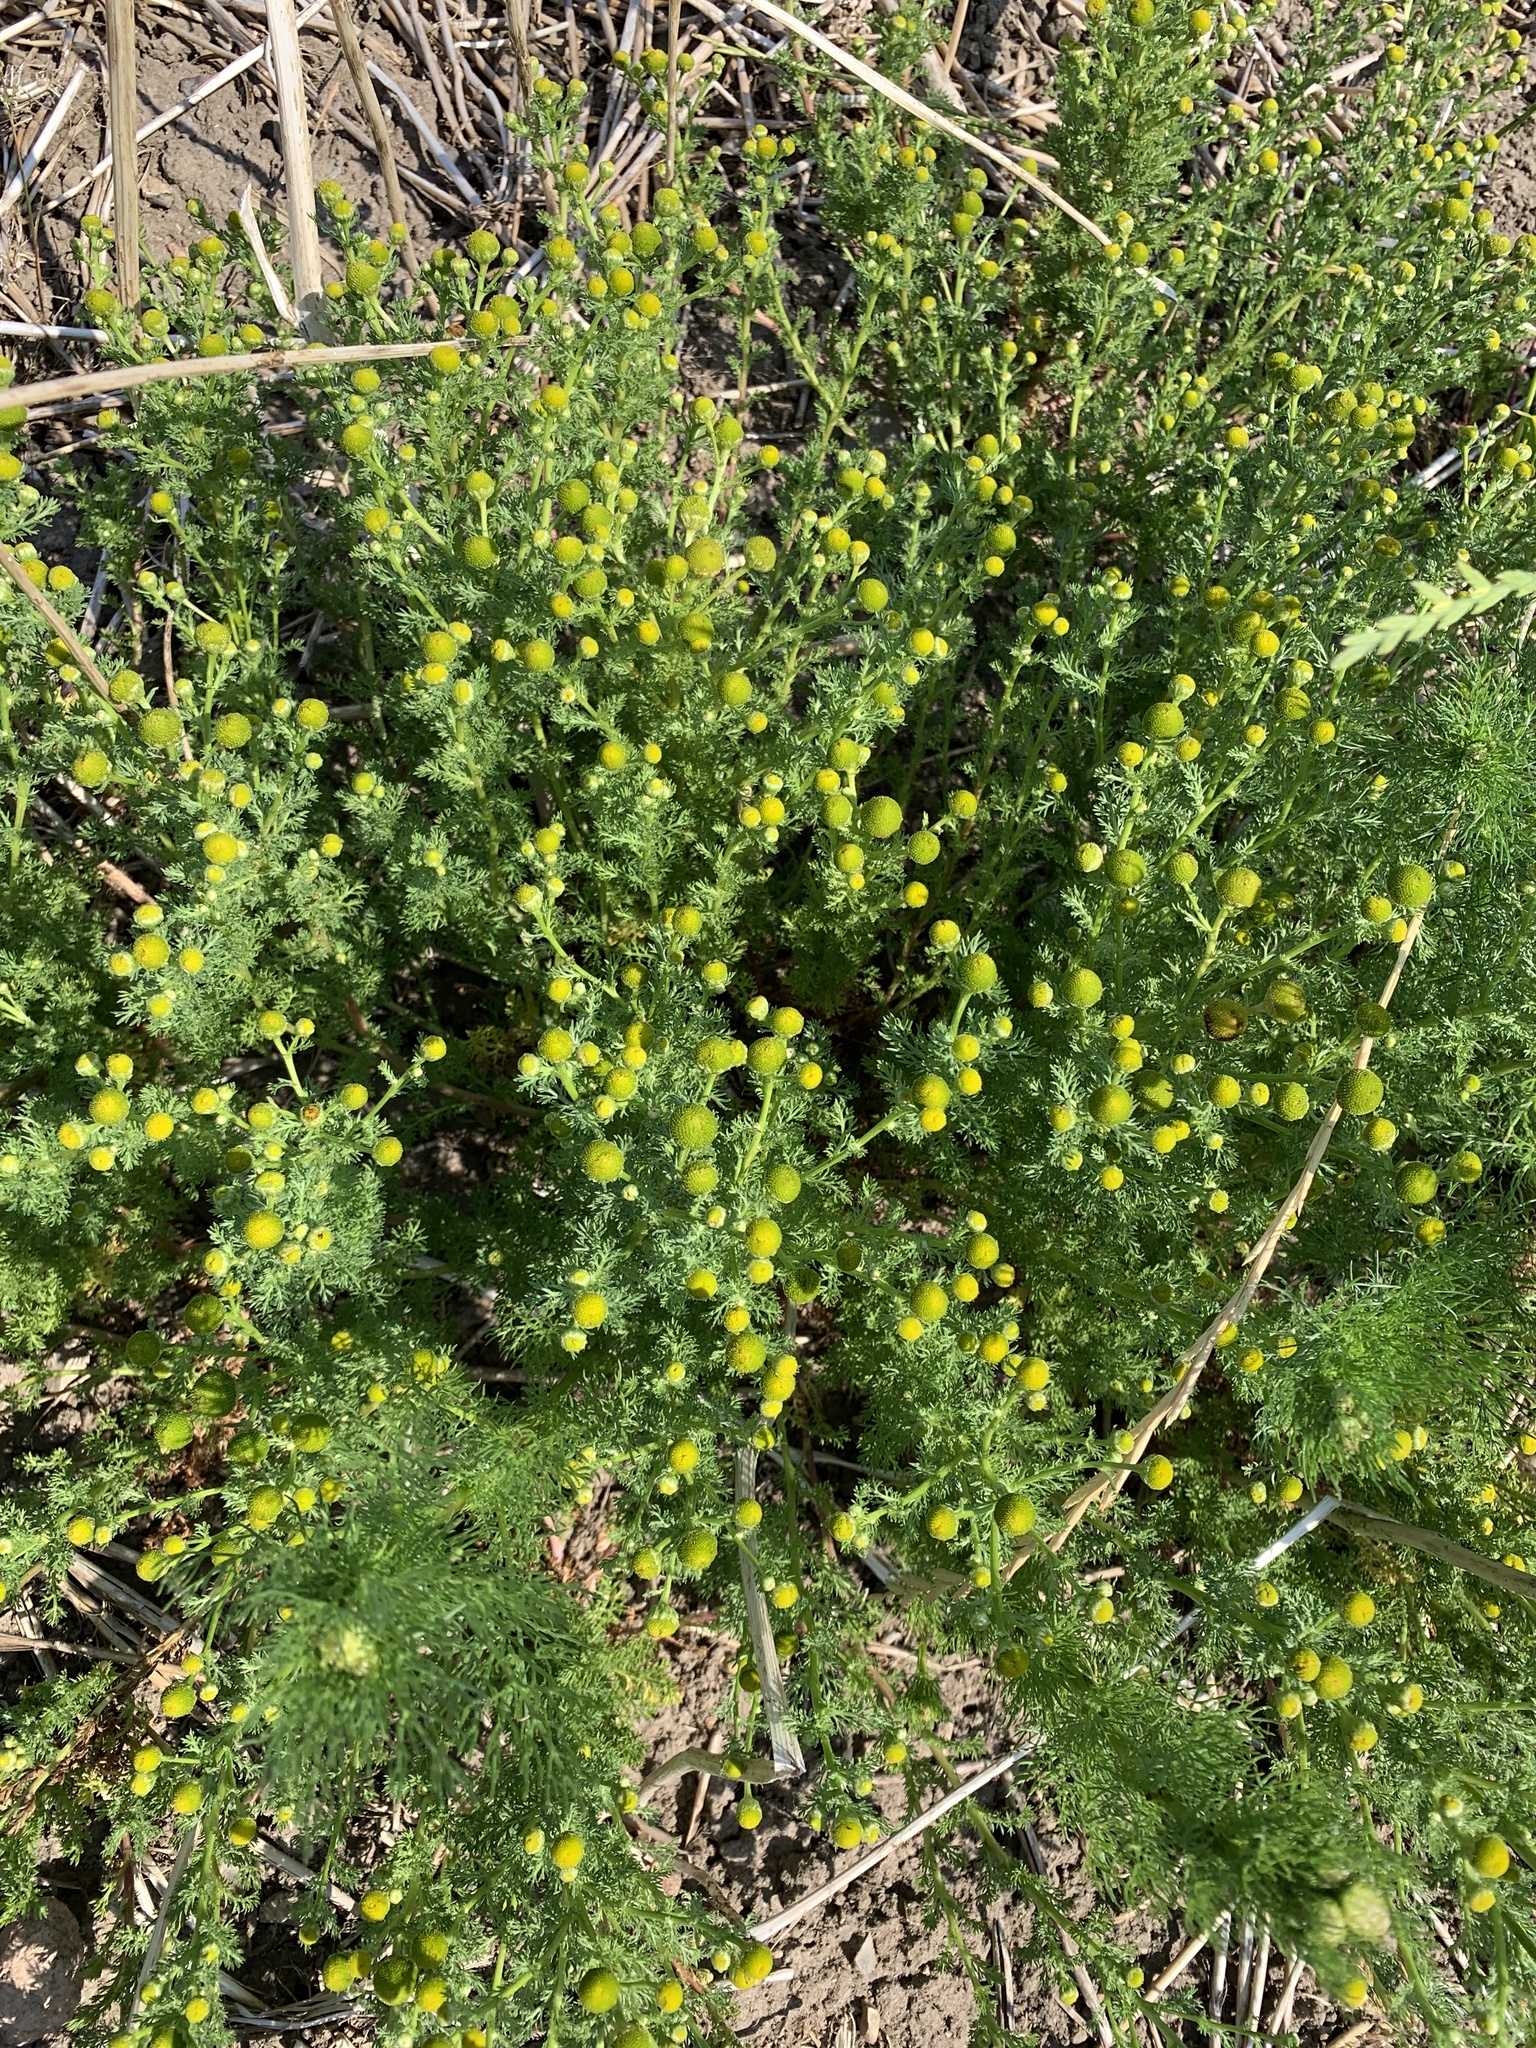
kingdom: Plantae
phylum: Tracheophyta
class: Magnoliopsida
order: Asterales
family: Asteraceae
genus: Matricaria
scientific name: Matricaria discoidea
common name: Disc mayweed
